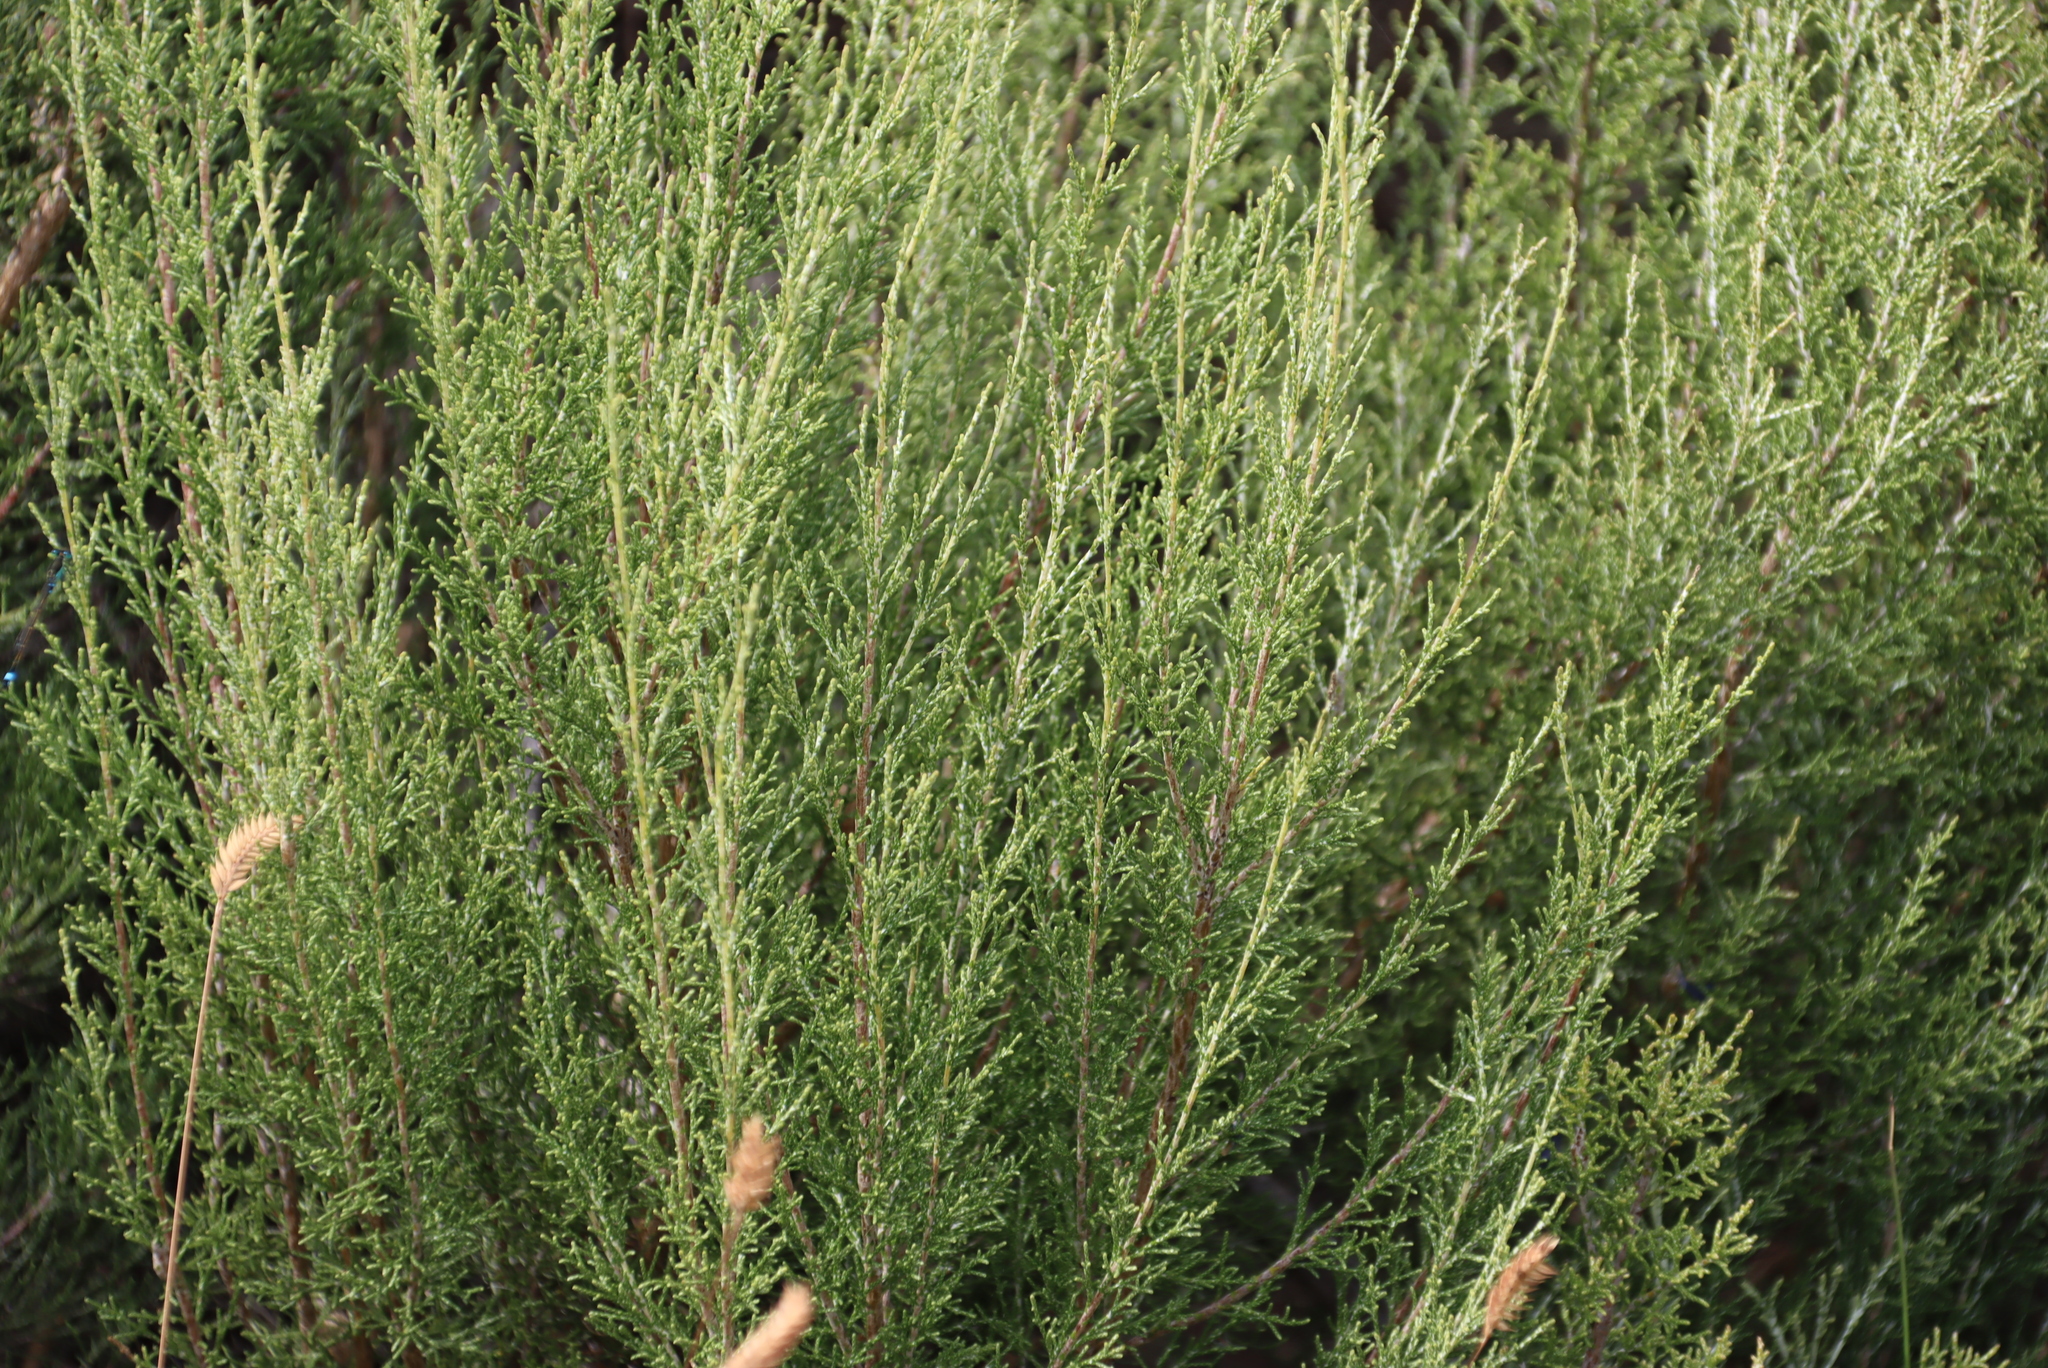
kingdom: Plantae
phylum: Tracheophyta
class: Magnoliopsida
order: Asterales
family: Asteraceae
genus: Dicerothamnus
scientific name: Dicerothamnus rhinocerotis
